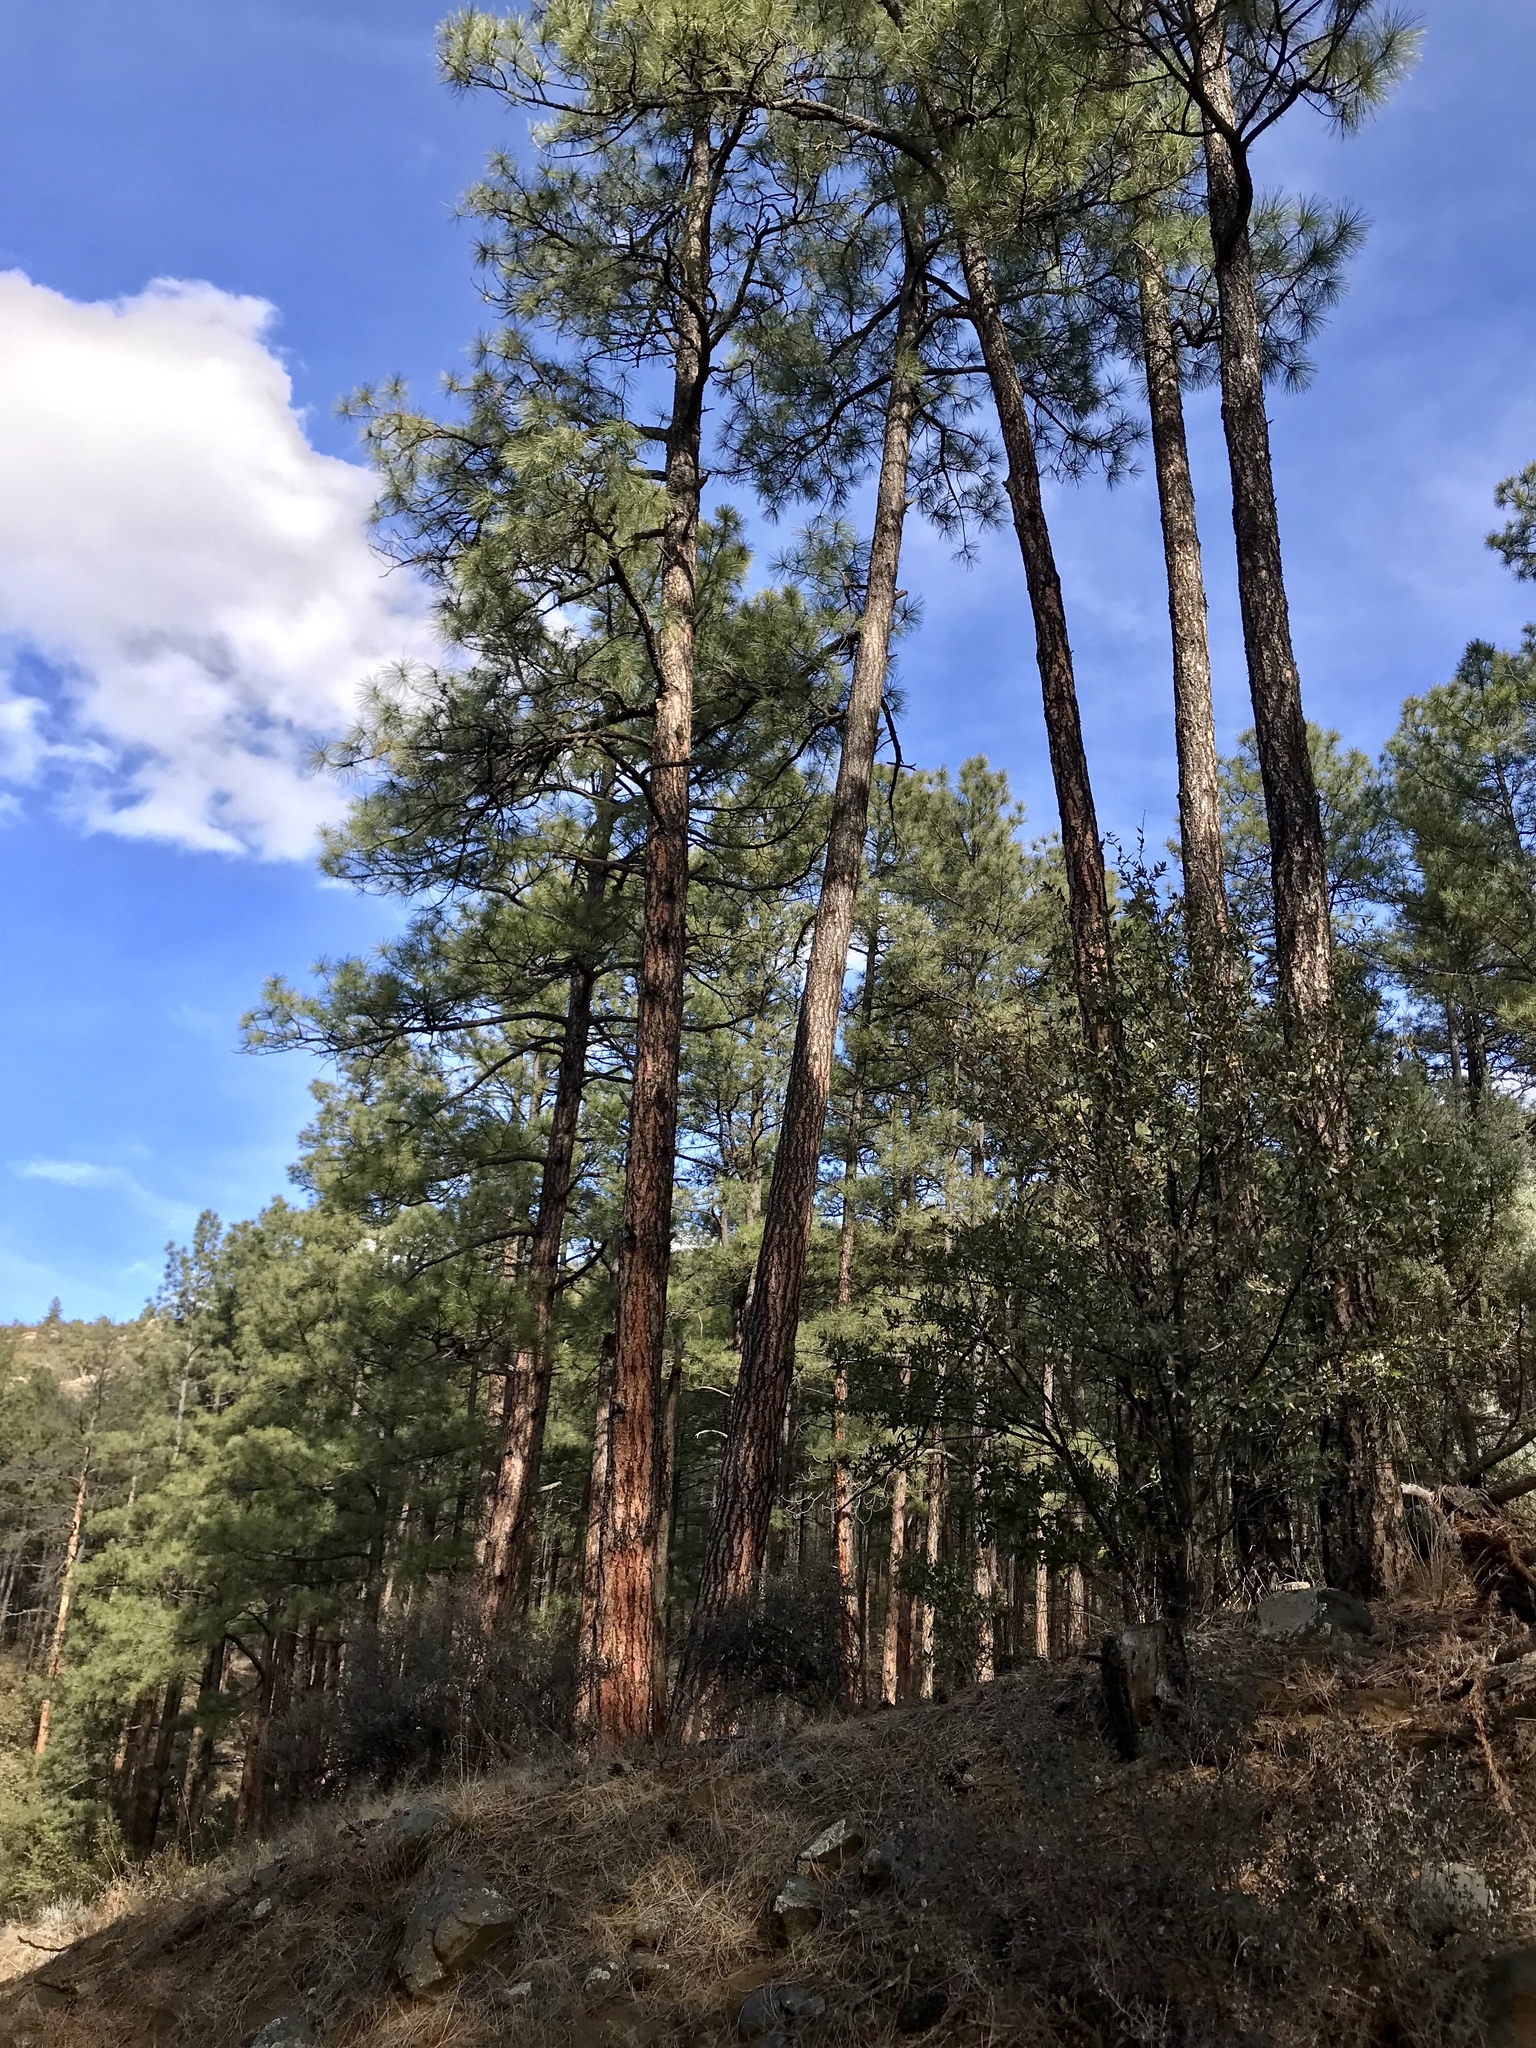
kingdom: Plantae
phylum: Tracheophyta
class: Pinopsida
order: Pinales
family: Pinaceae
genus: Pinus
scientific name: Pinus ponderosa
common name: Western yellow-pine
